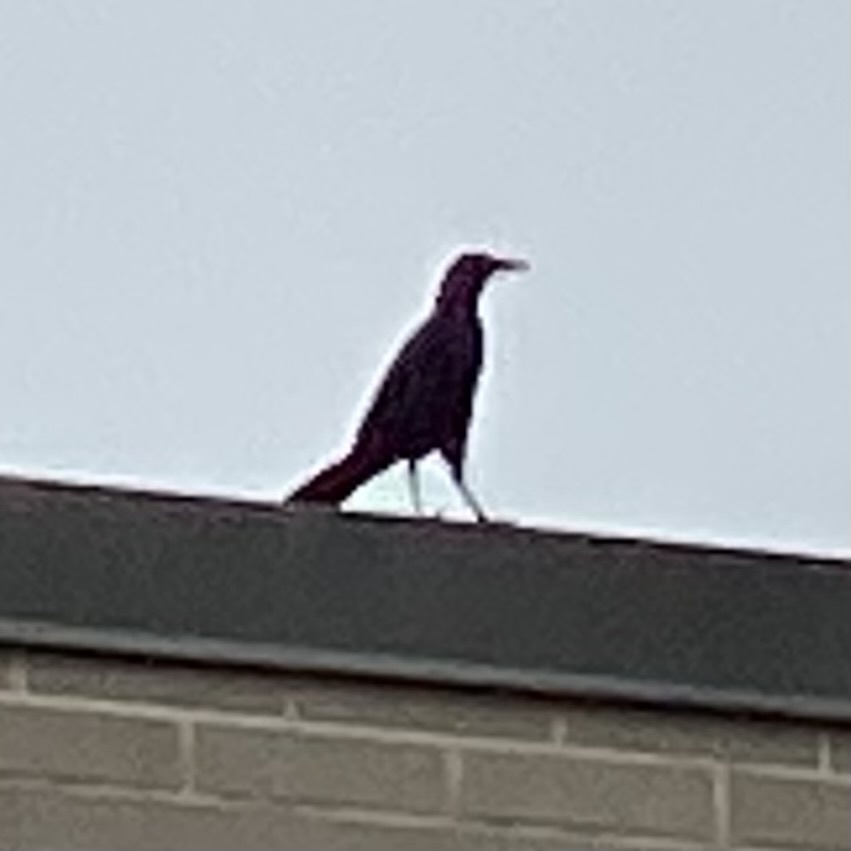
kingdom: Animalia
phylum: Chordata
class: Aves
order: Passeriformes
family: Icteridae
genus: Quiscalus
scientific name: Quiscalus mexicanus
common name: Great-tailed grackle
